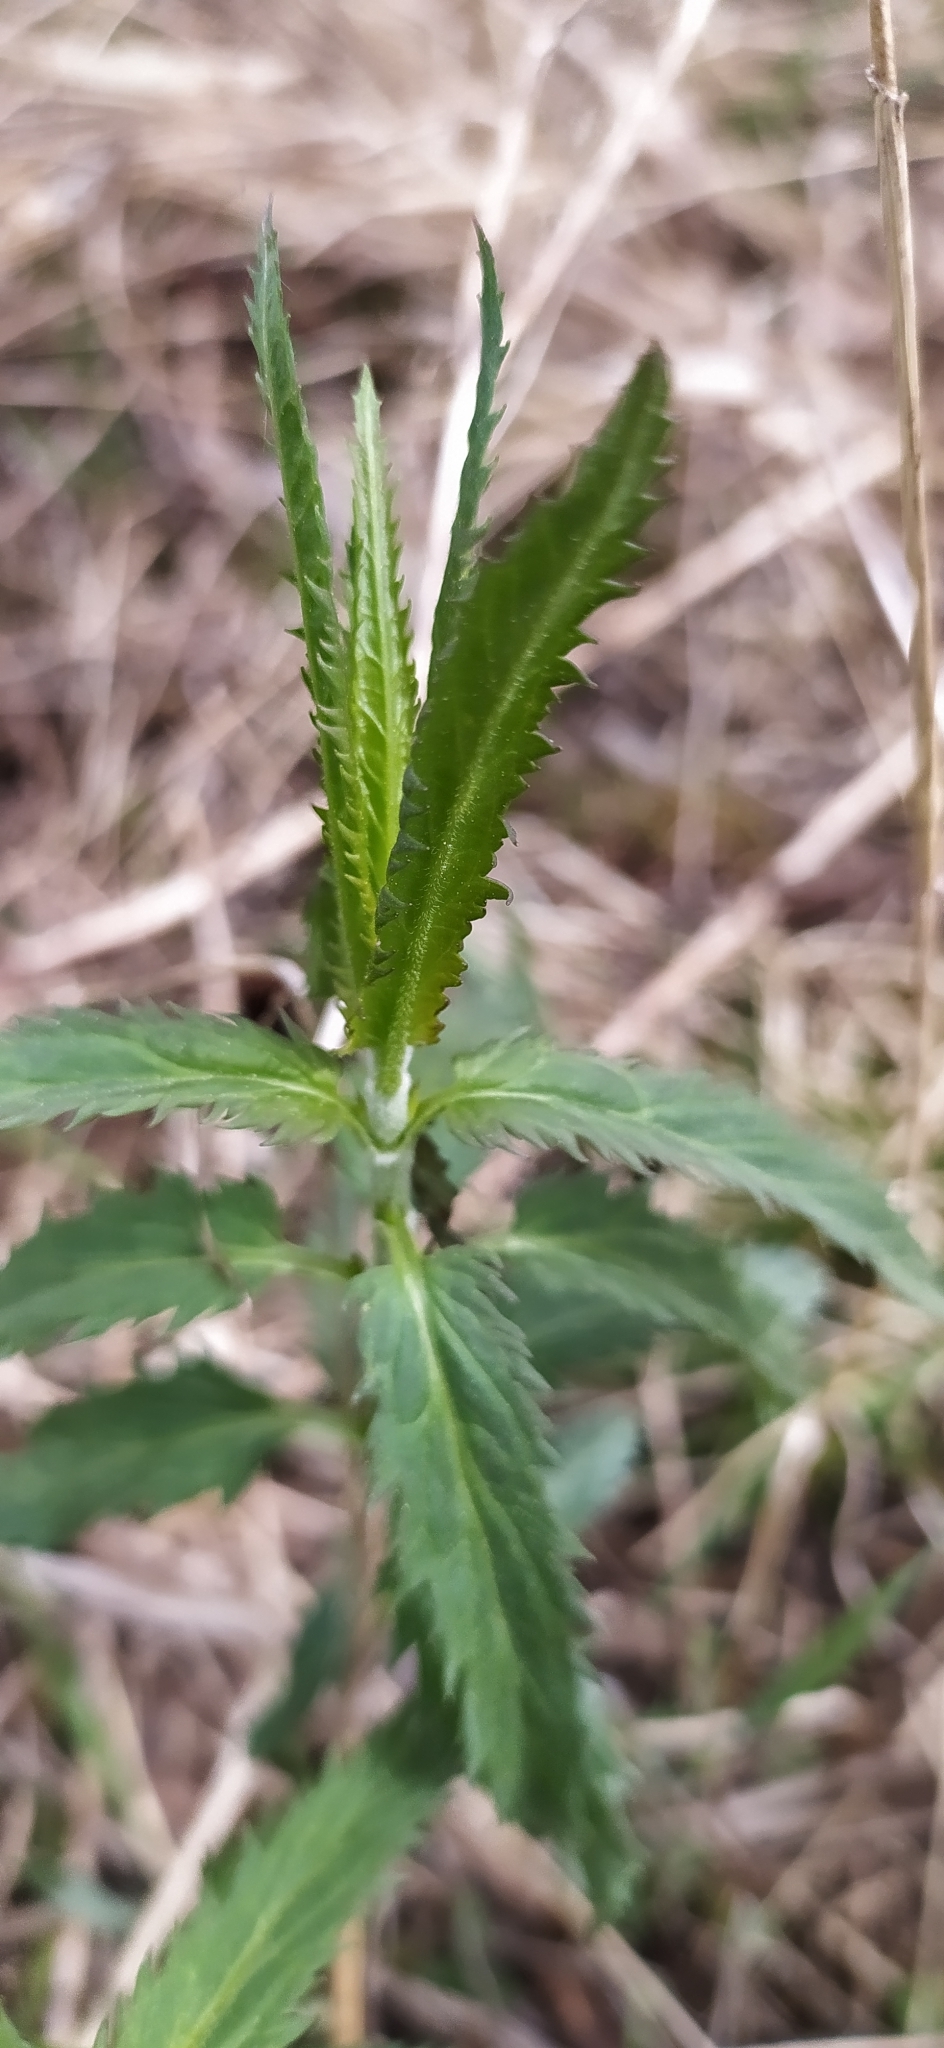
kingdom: Plantae
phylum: Tracheophyta
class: Magnoliopsida
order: Lamiales
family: Plantaginaceae
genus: Veronica
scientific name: Veronica longifolia
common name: Garden speedwell
